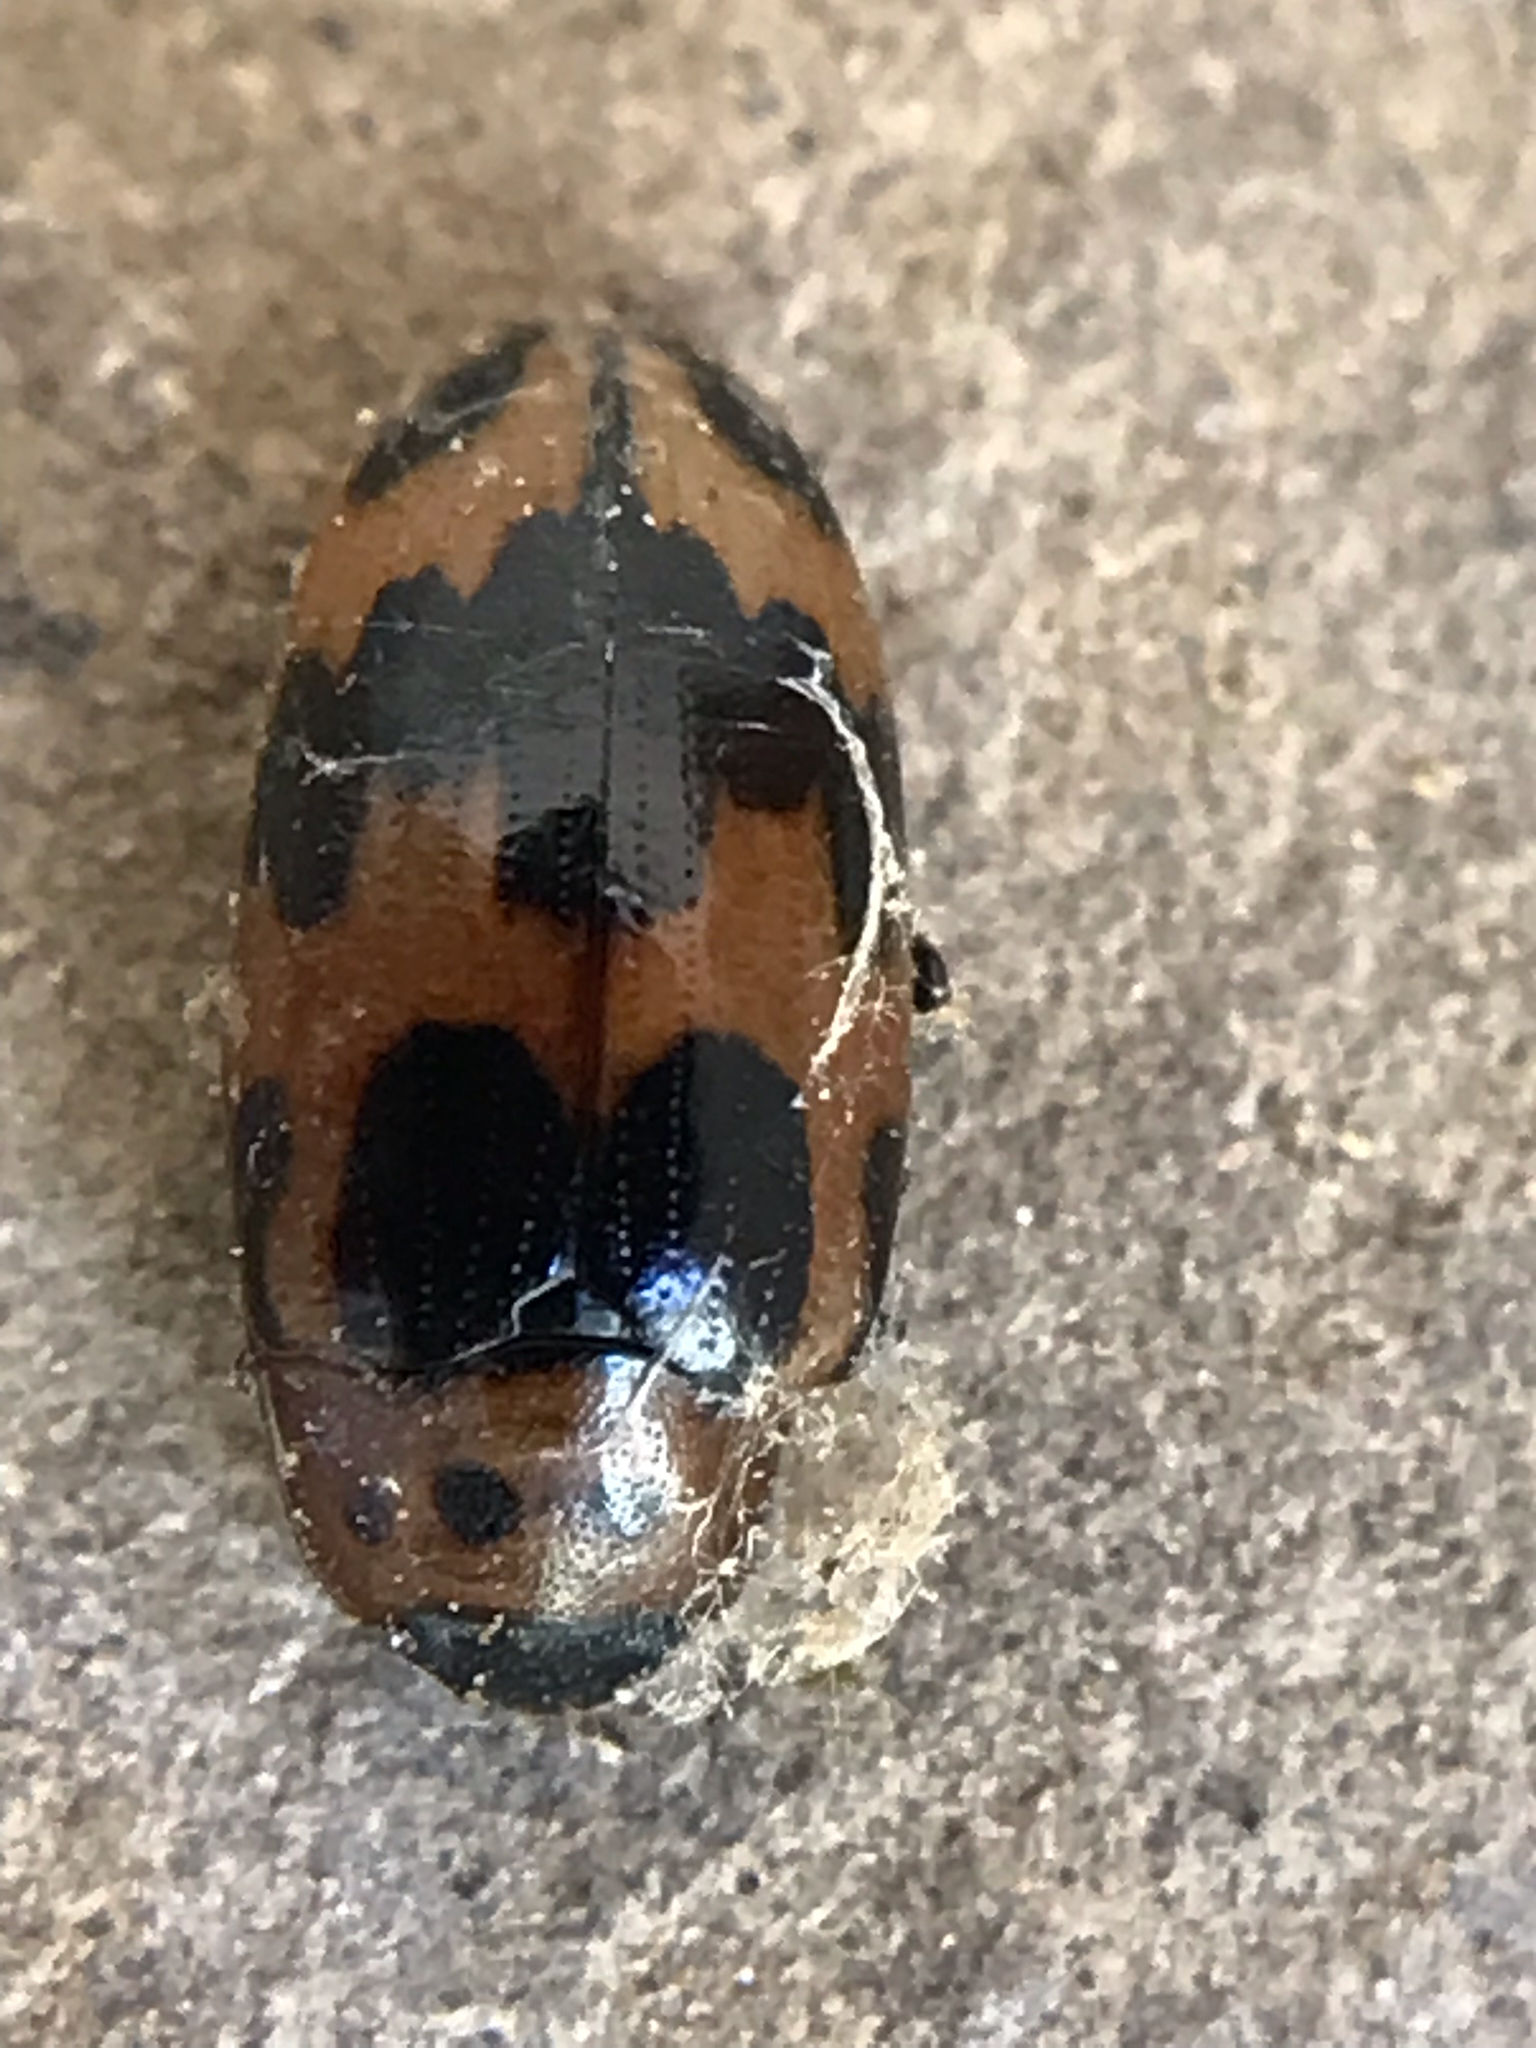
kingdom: Animalia
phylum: Arthropoda
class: Insecta
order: Coleoptera
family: Erotylidae
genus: Ischyrus
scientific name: Ischyrus quadripunctatus
